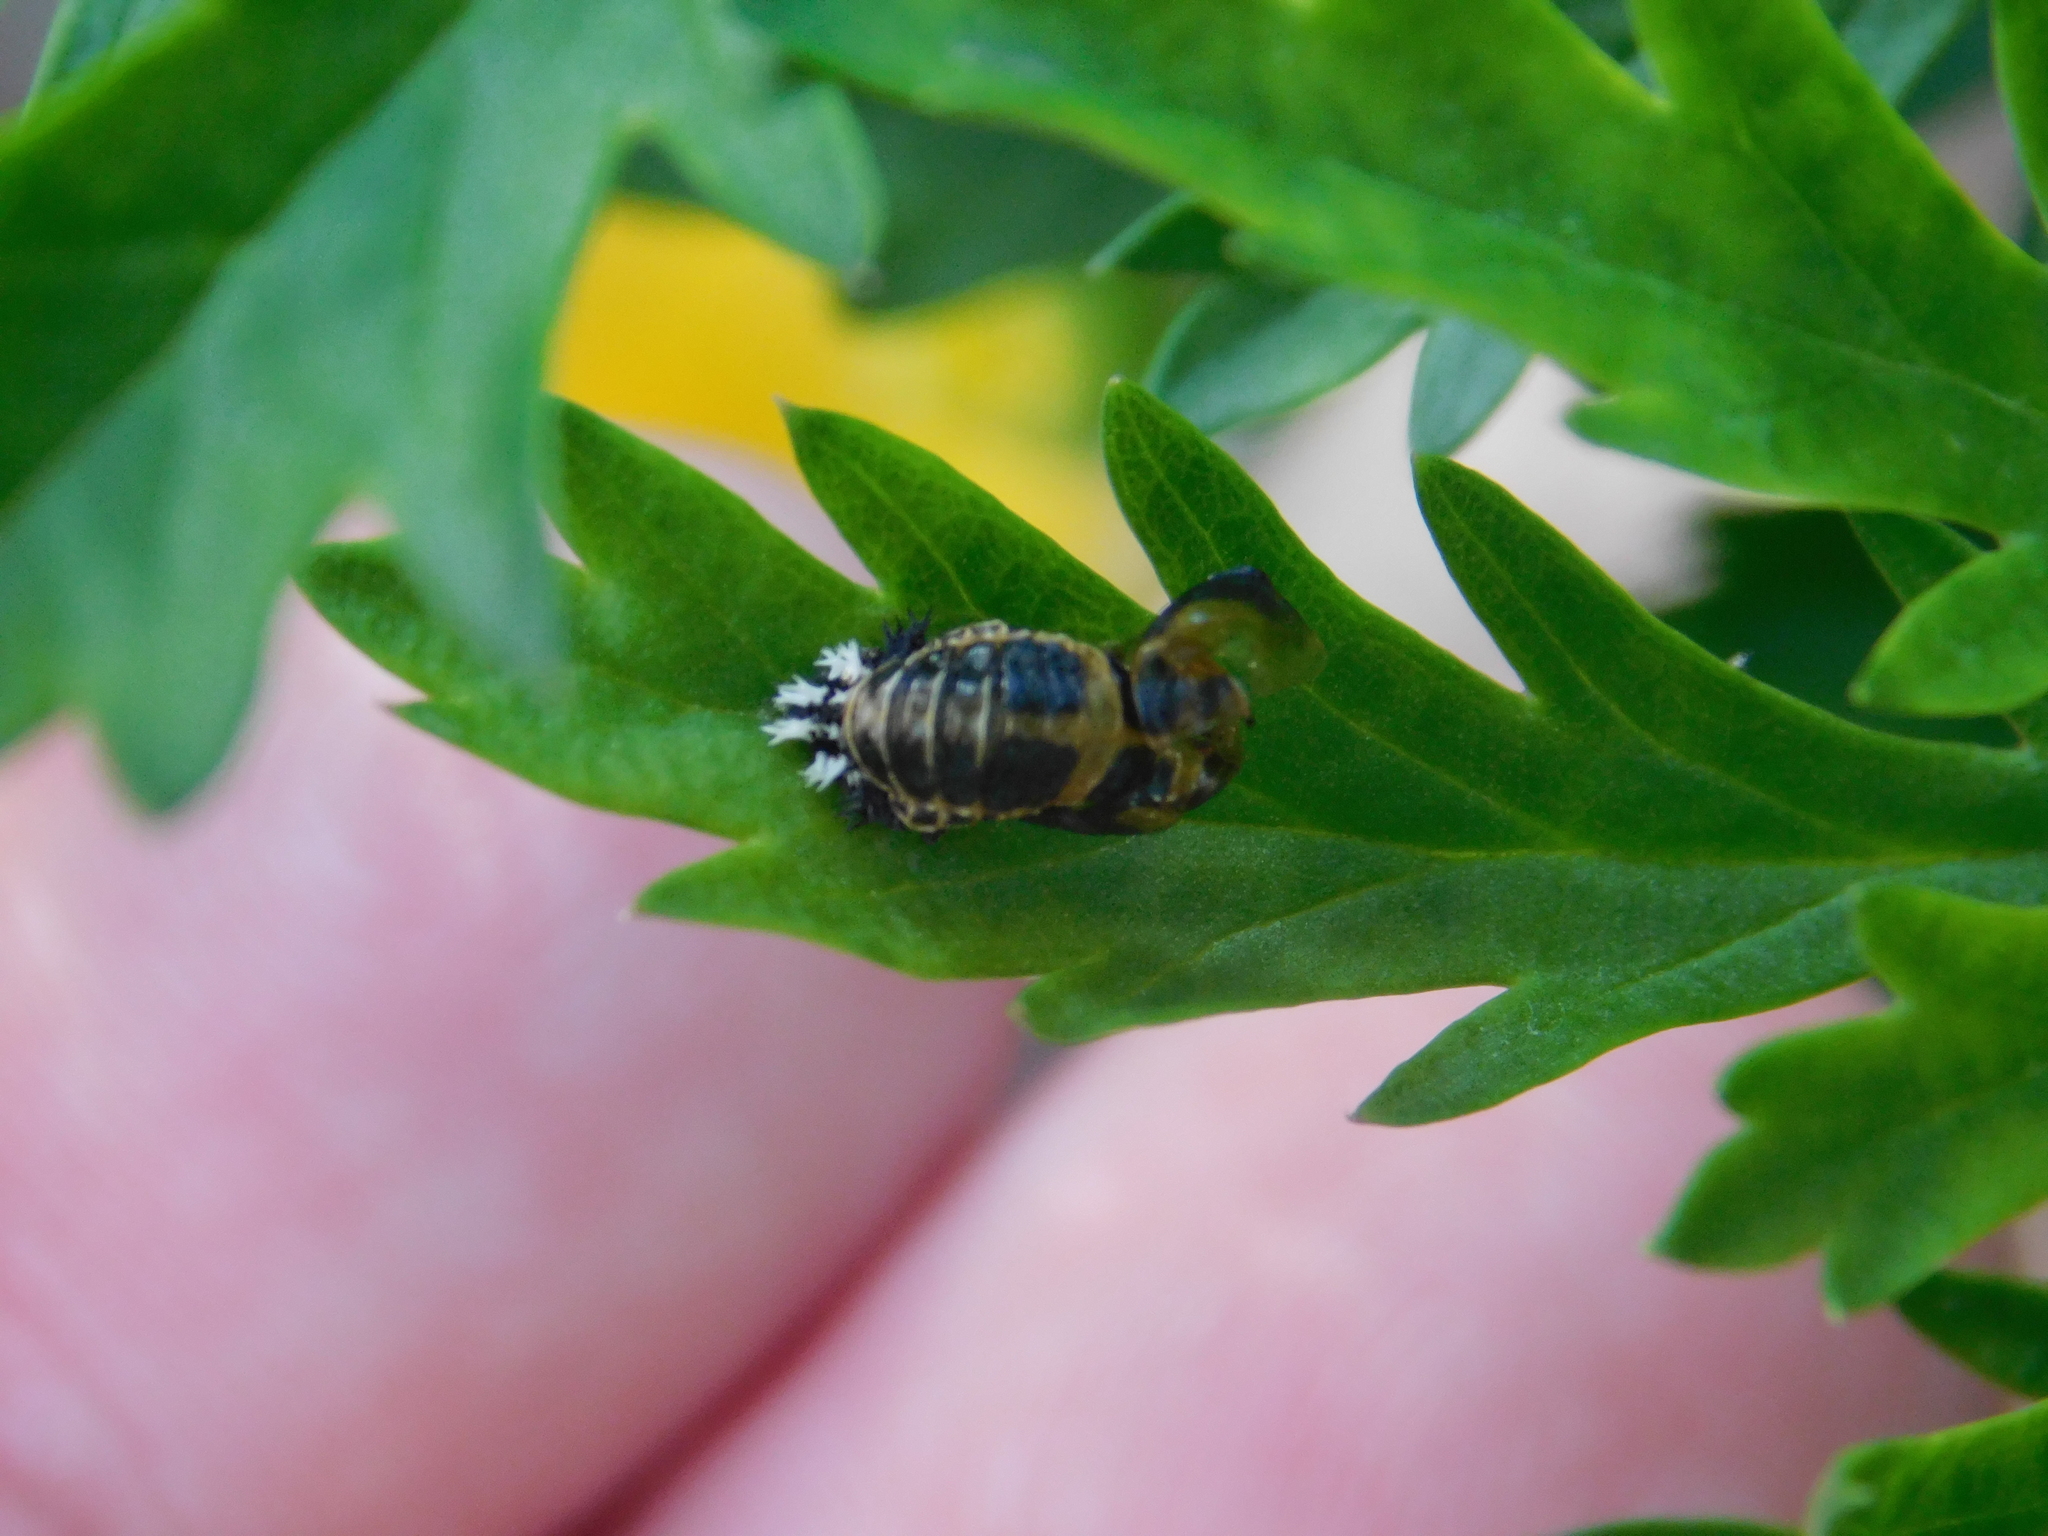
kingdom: Animalia
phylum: Arthropoda
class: Insecta
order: Coleoptera
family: Coccinellidae
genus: Harmonia
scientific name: Harmonia axyridis
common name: Harlequin ladybird
